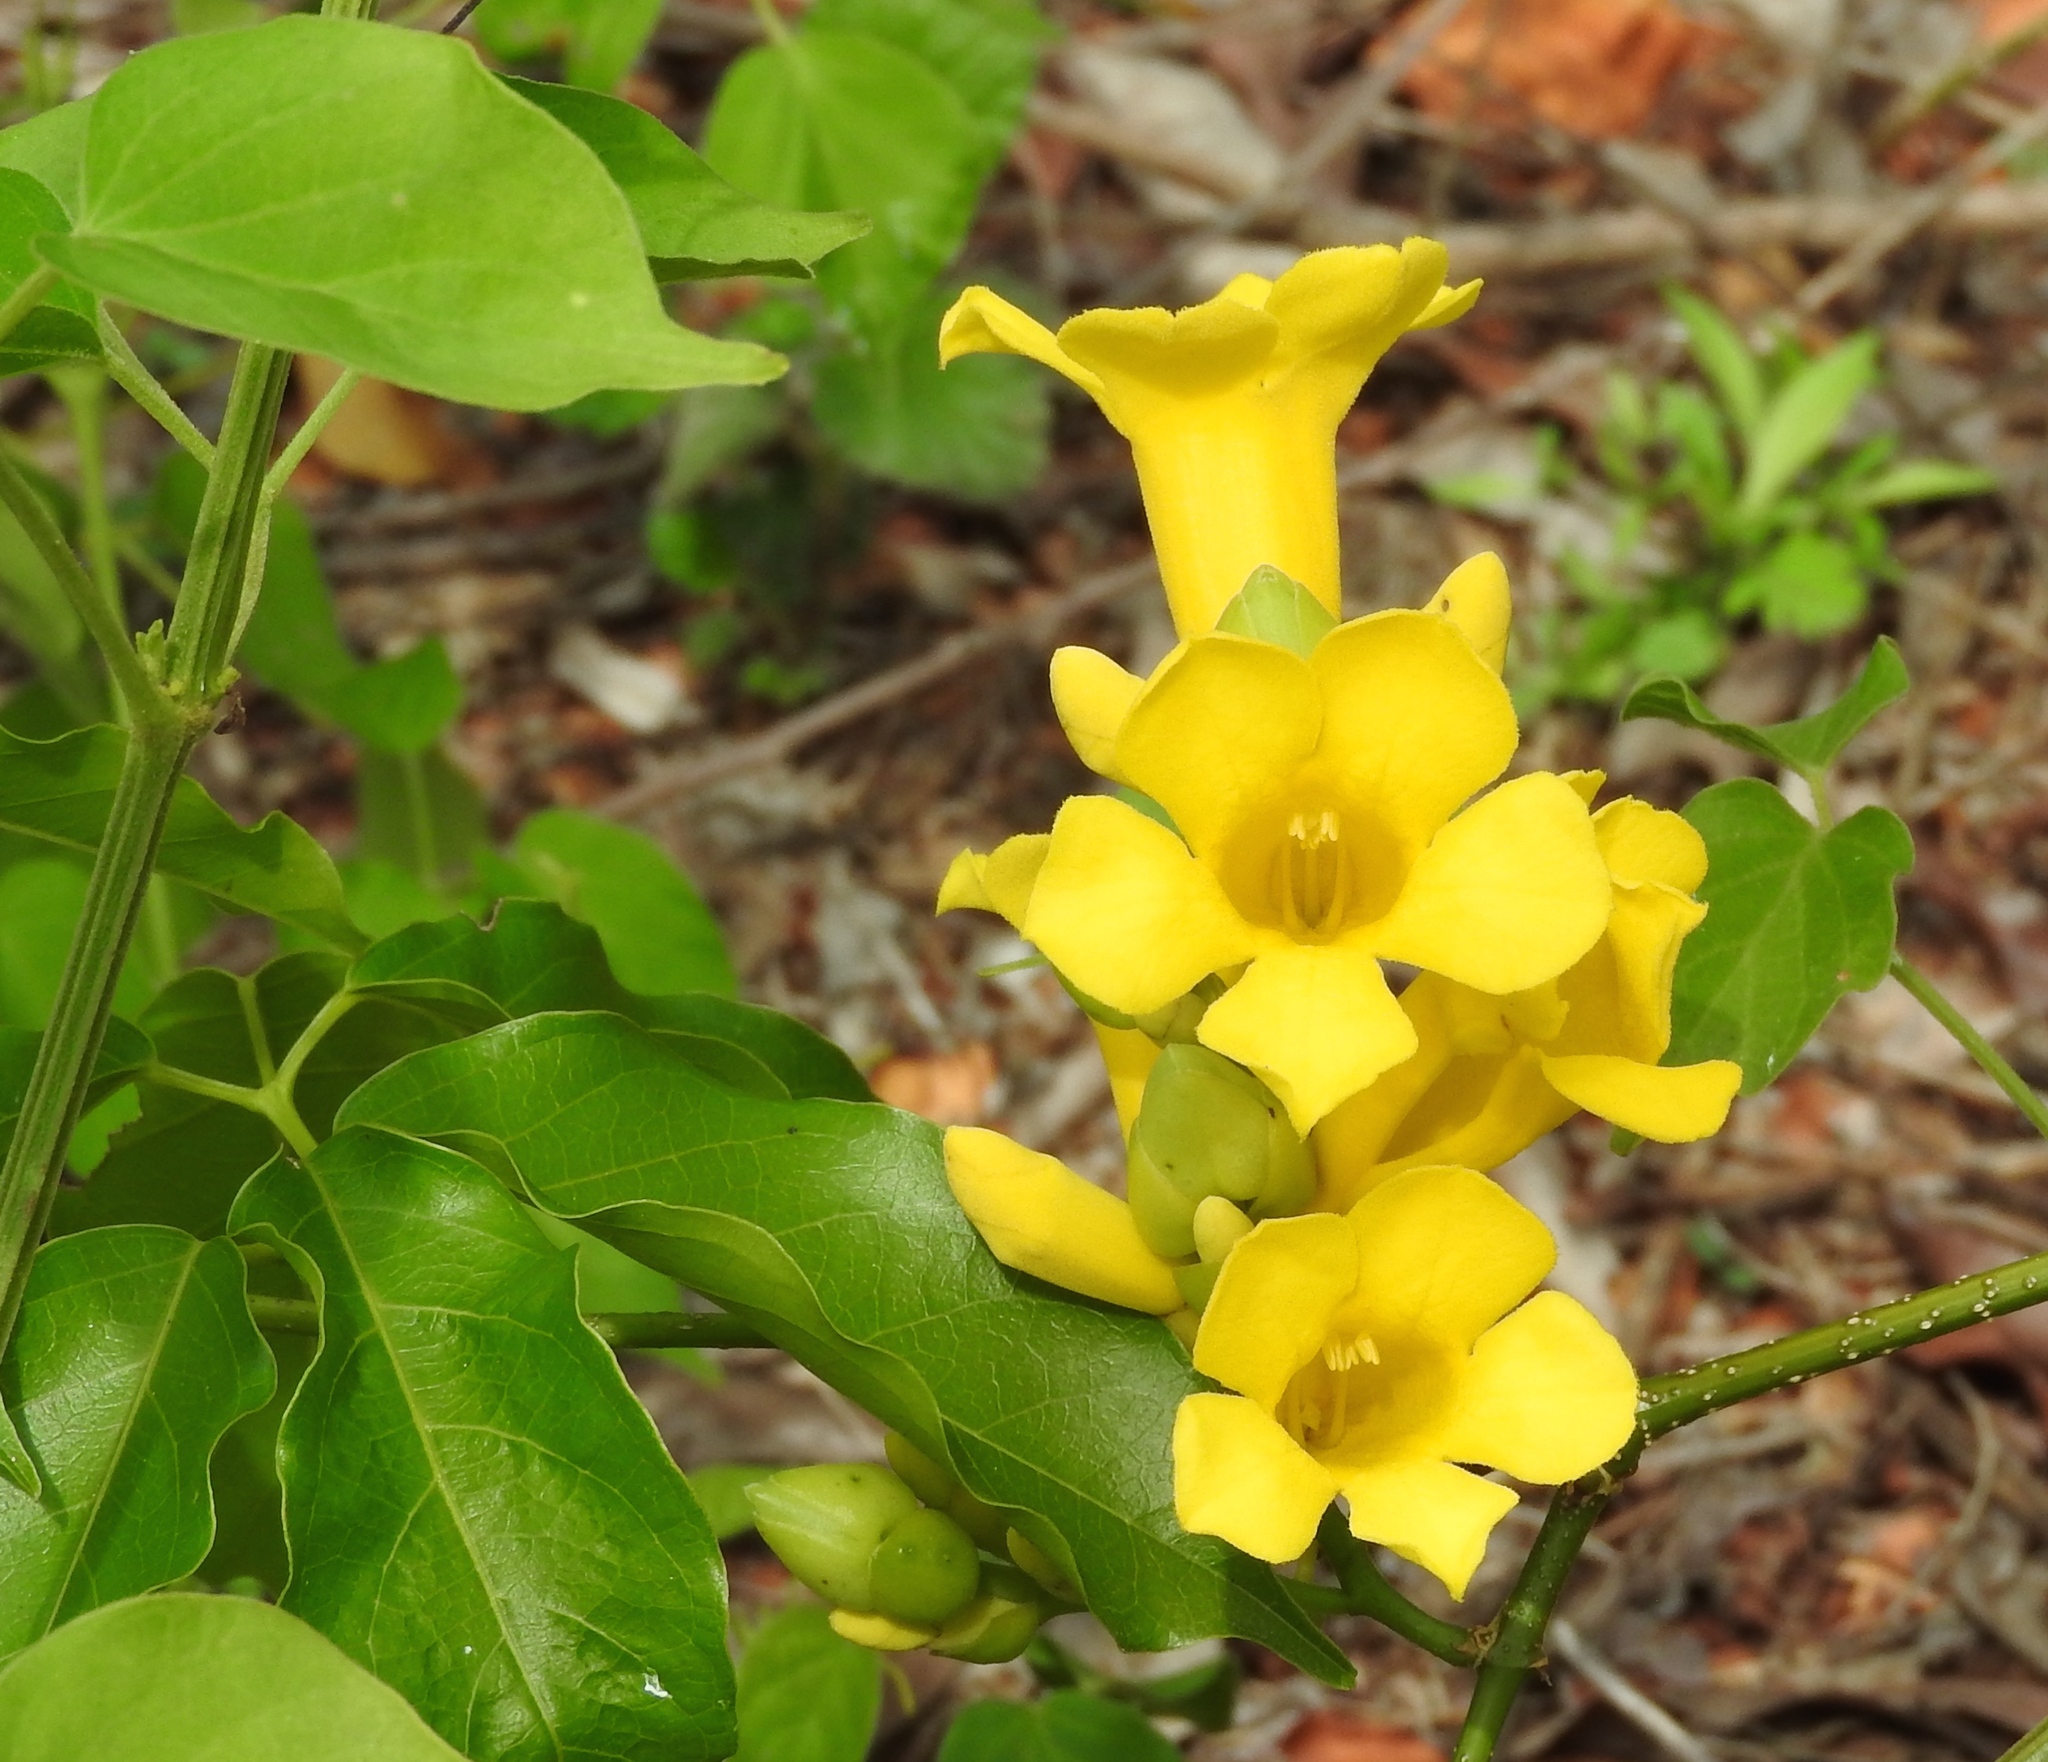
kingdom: Plantae
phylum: Tracheophyta
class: Magnoliopsida
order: Lamiales
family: Bignoniaceae
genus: Adenocalymma
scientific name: Adenocalymma inundatum
